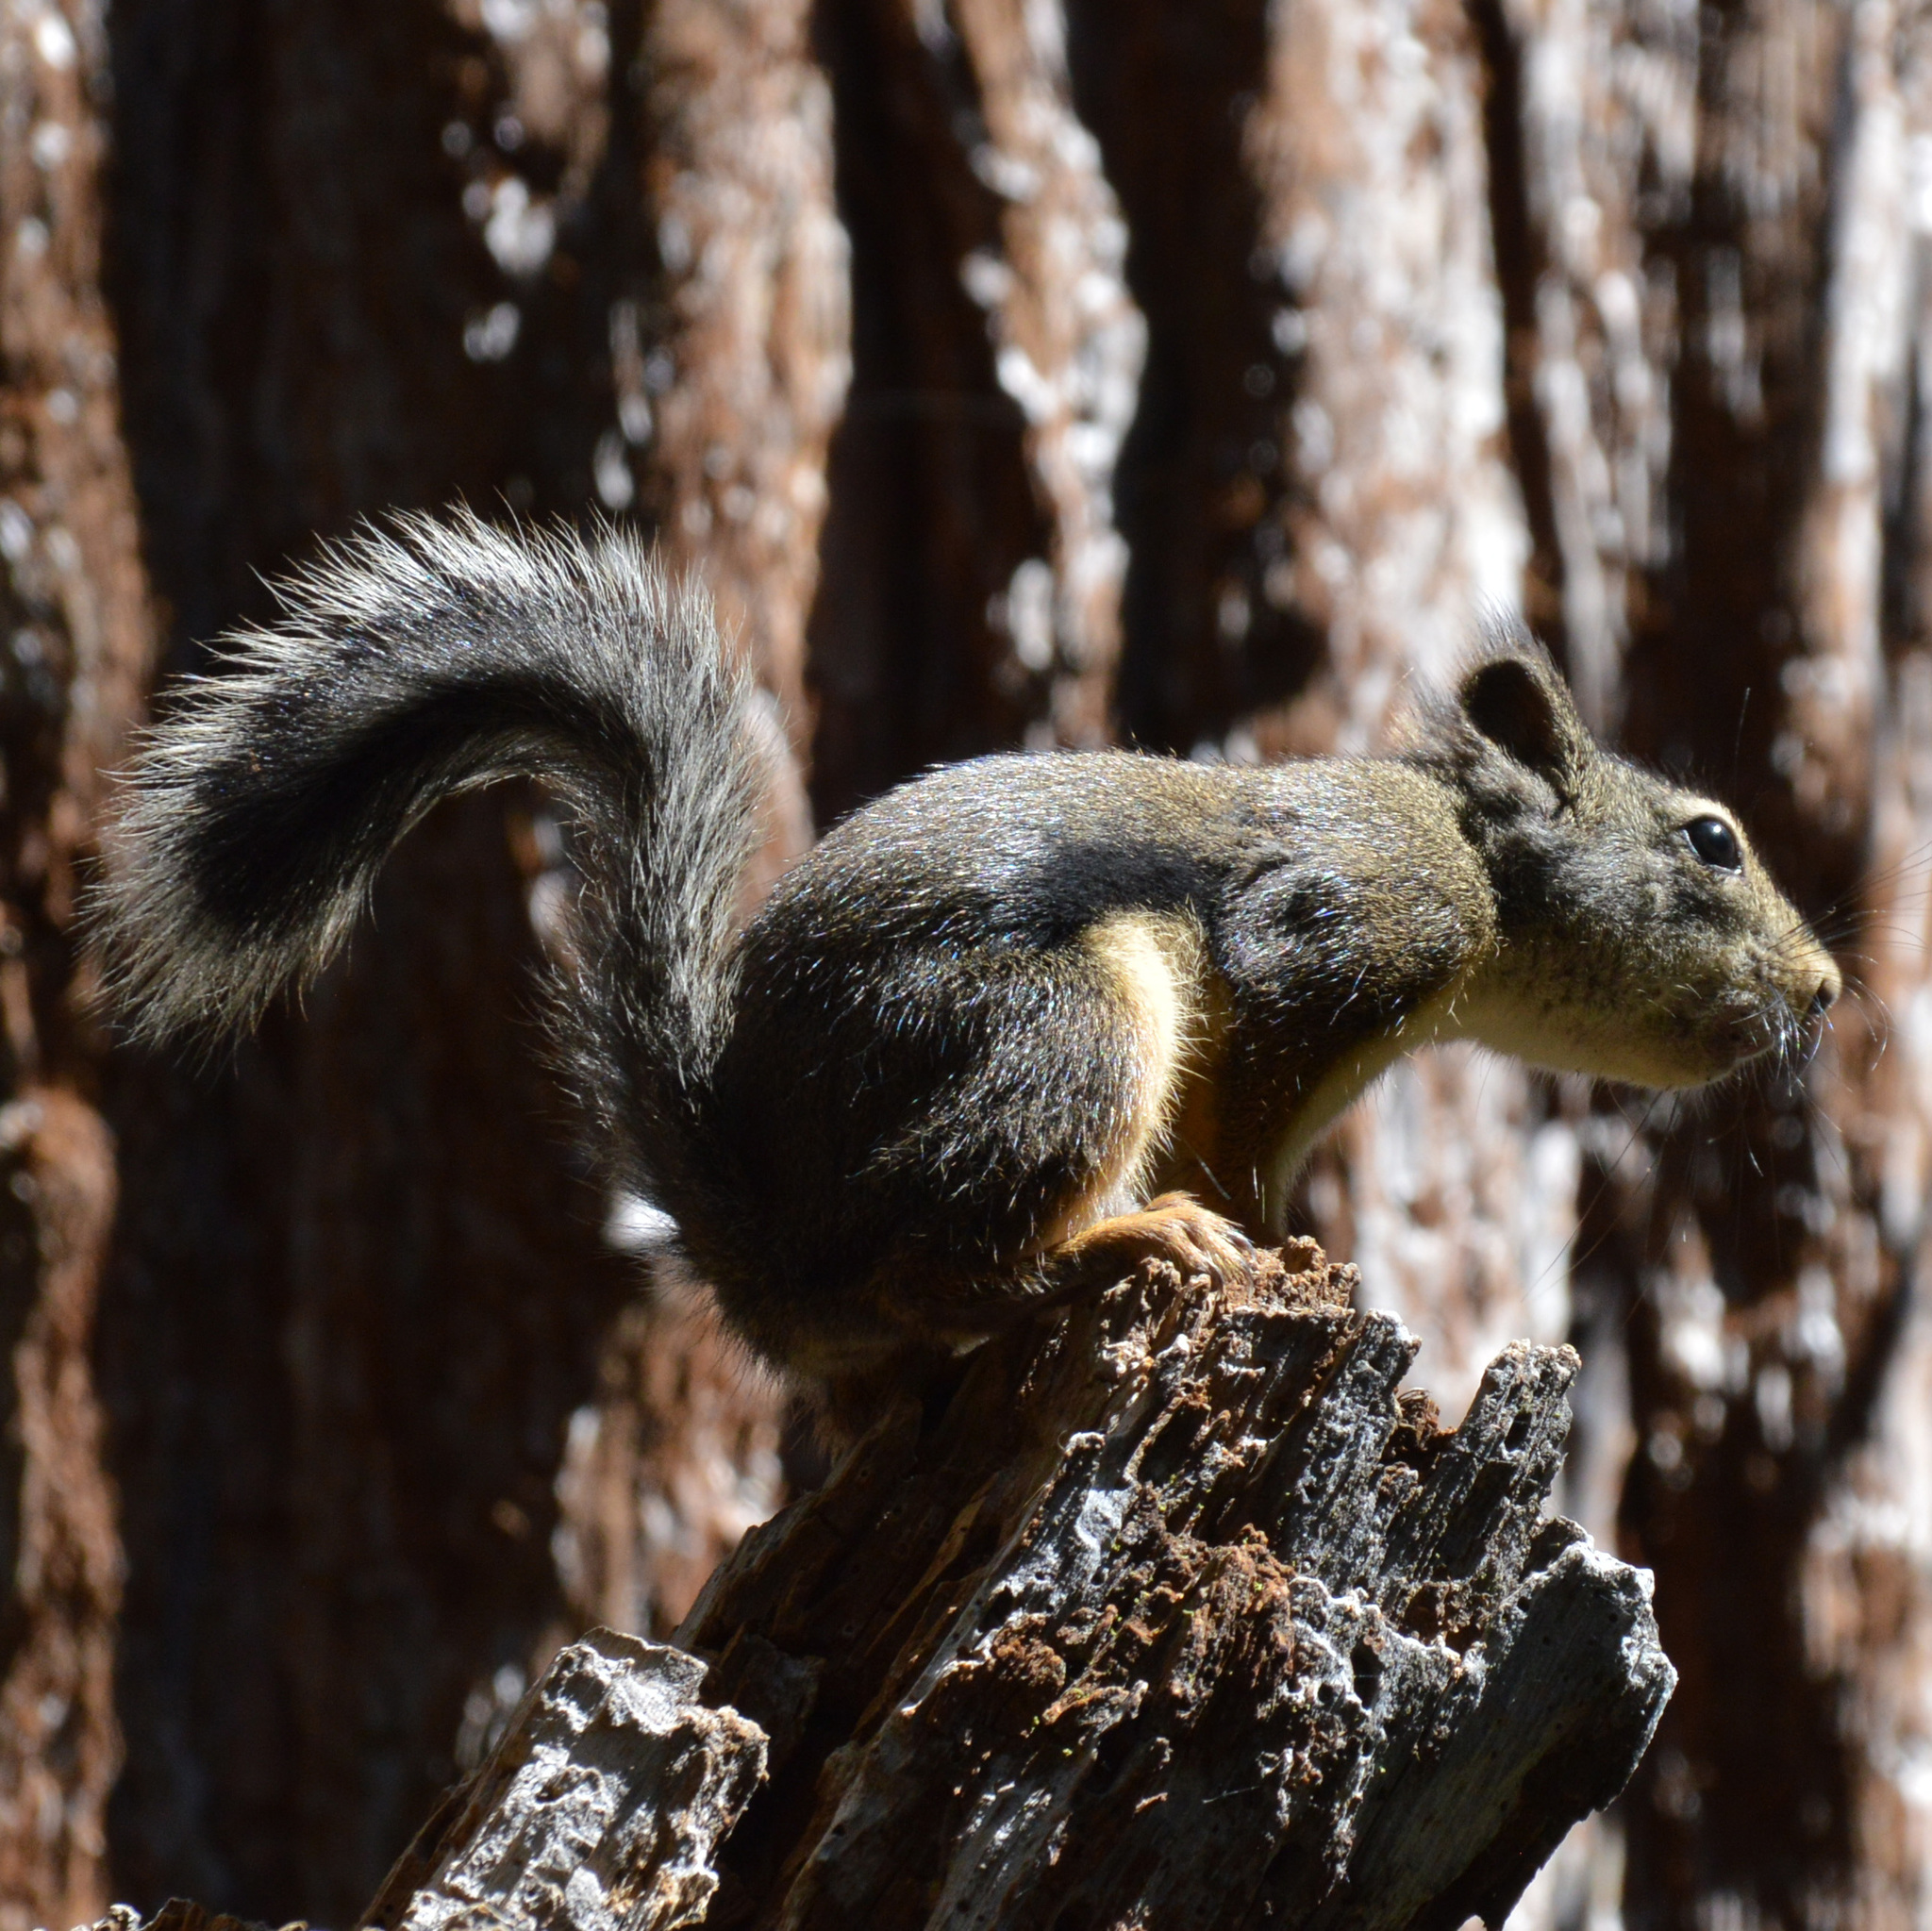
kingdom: Animalia
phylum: Chordata
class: Mammalia
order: Rodentia
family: Sciuridae
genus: Tamiasciurus
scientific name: Tamiasciurus douglasii
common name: Douglas's squirrel
